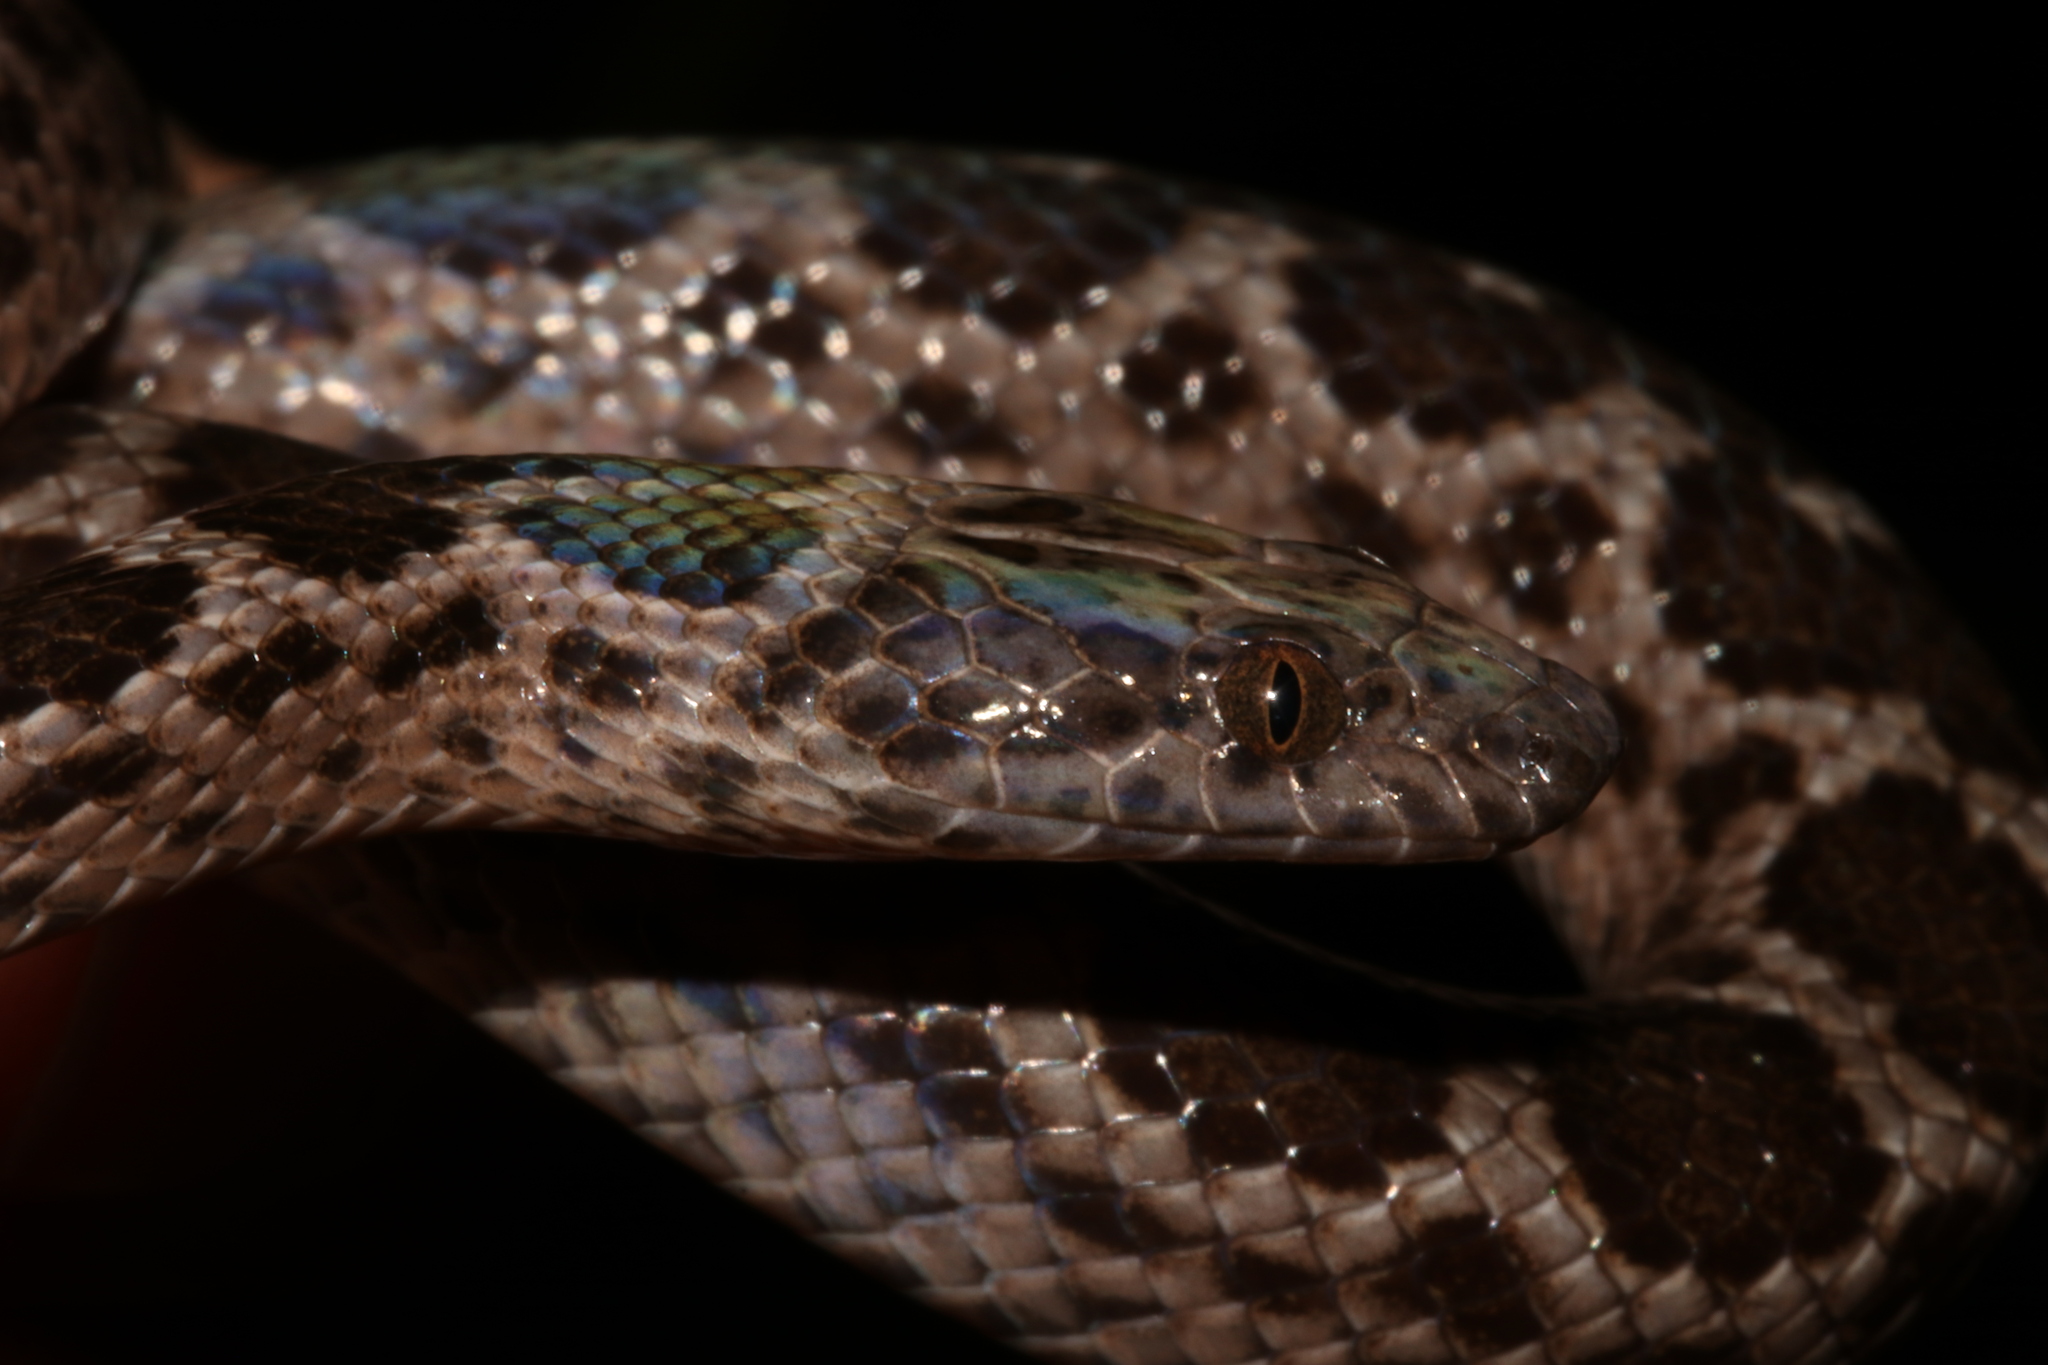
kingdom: Animalia
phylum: Chordata
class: Squamata
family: Lamprophiidae
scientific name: Lamprophiidae
